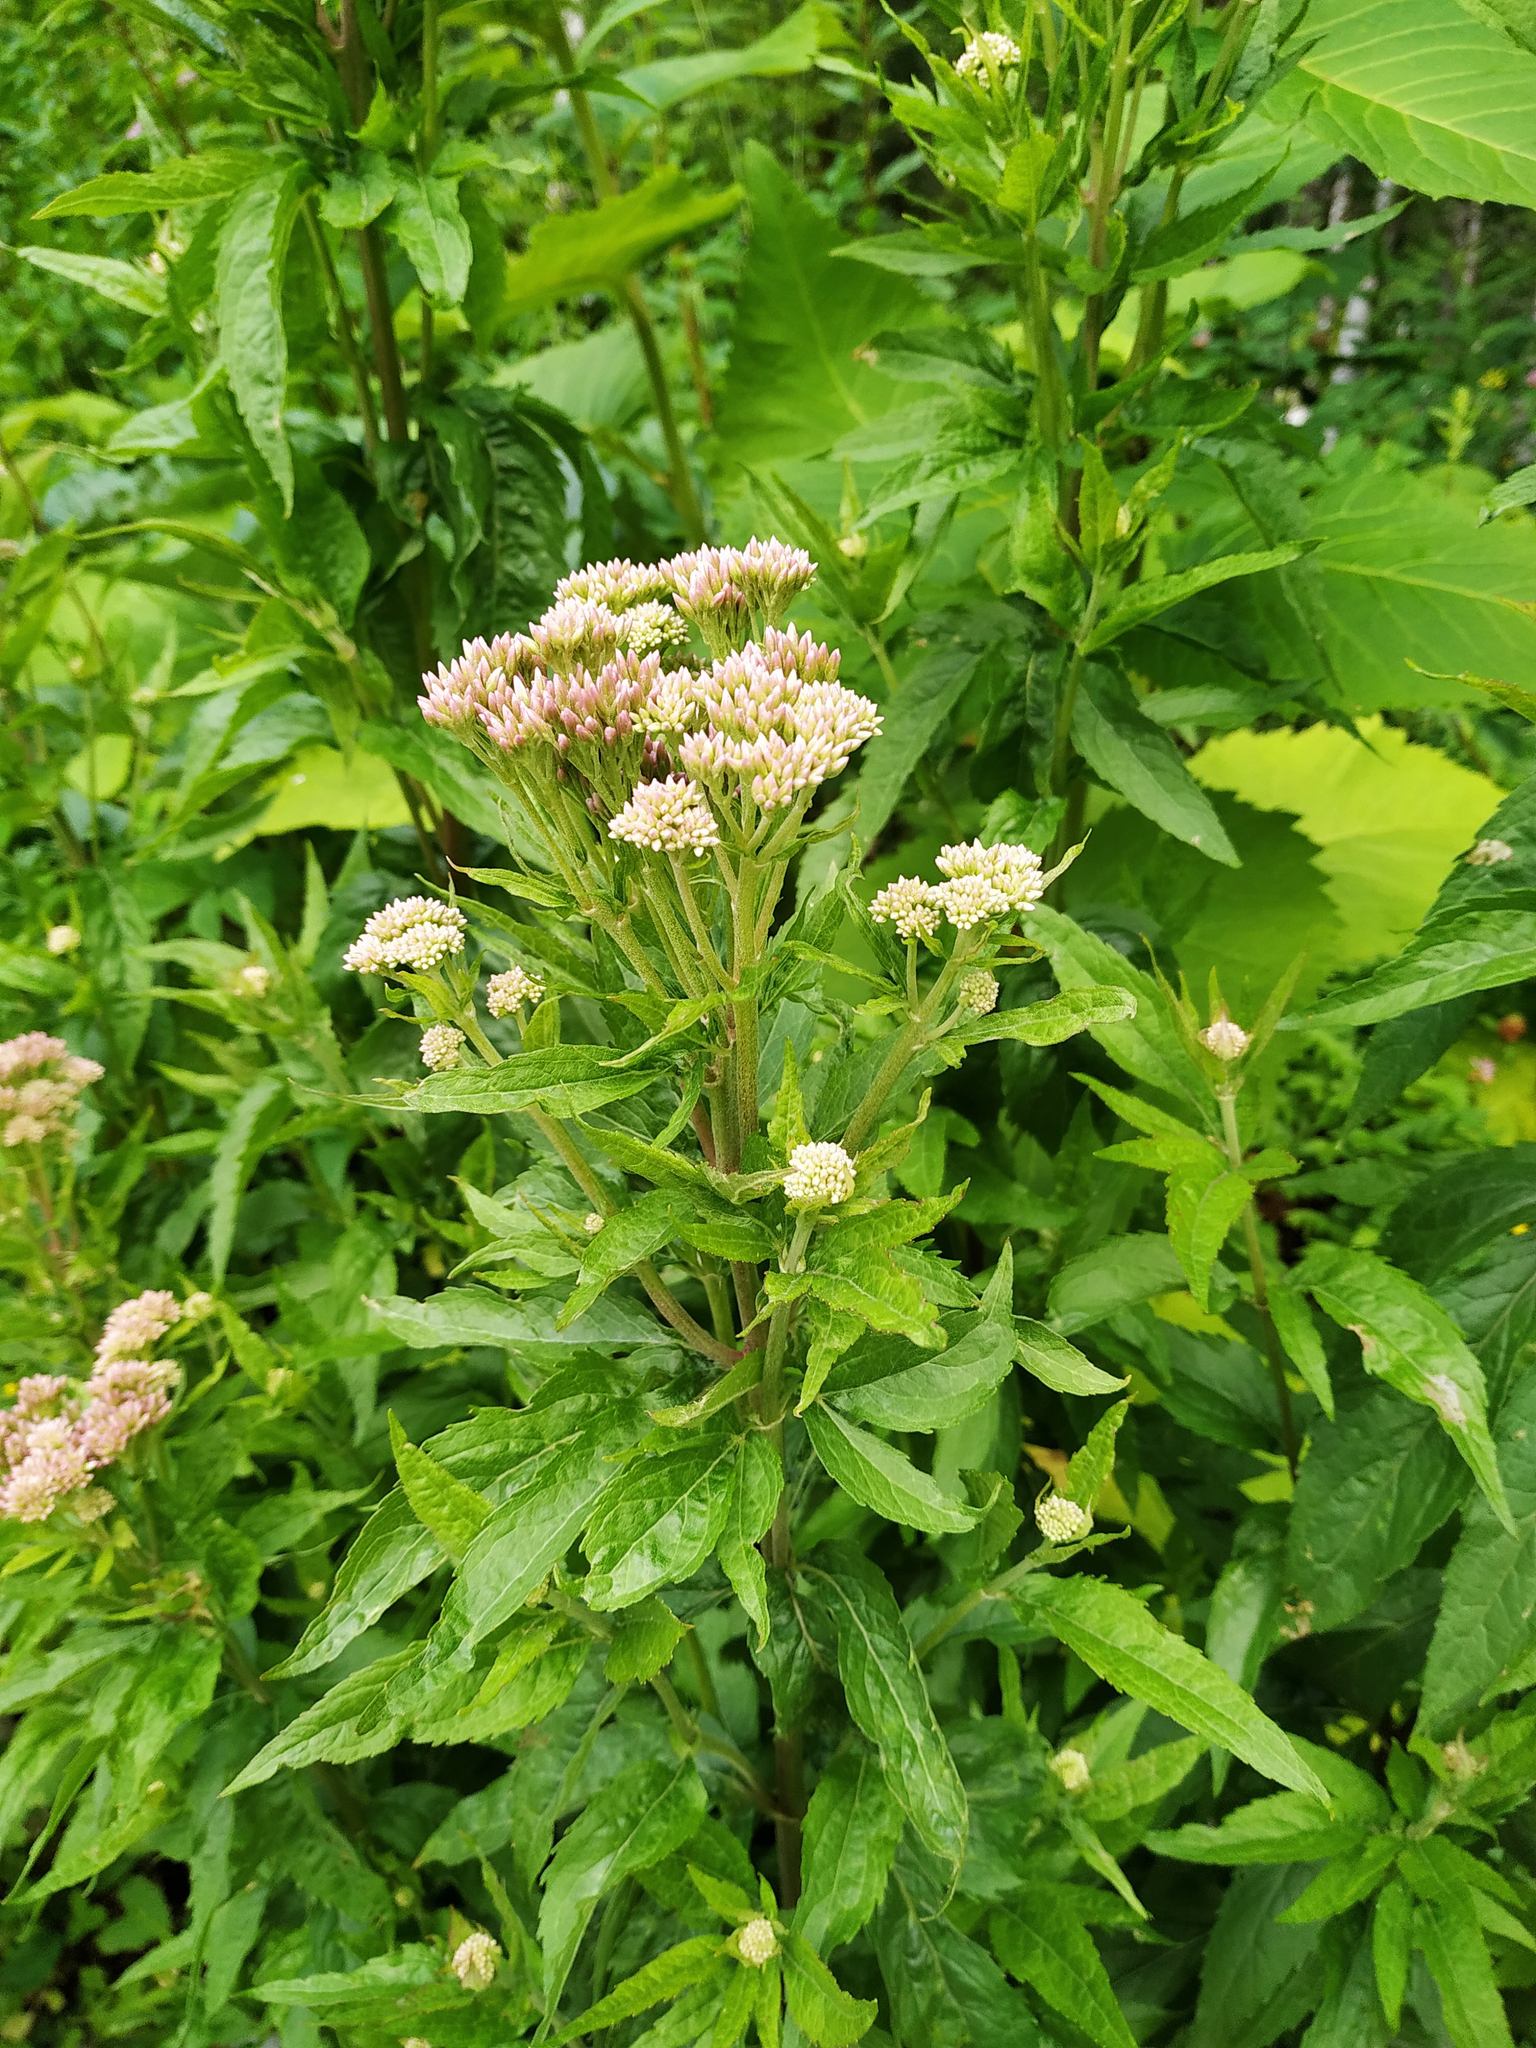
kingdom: Plantae
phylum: Tracheophyta
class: Magnoliopsida
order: Asterales
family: Asteraceae
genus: Eupatorium
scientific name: Eupatorium cannabinum
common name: Hemp-agrimony
